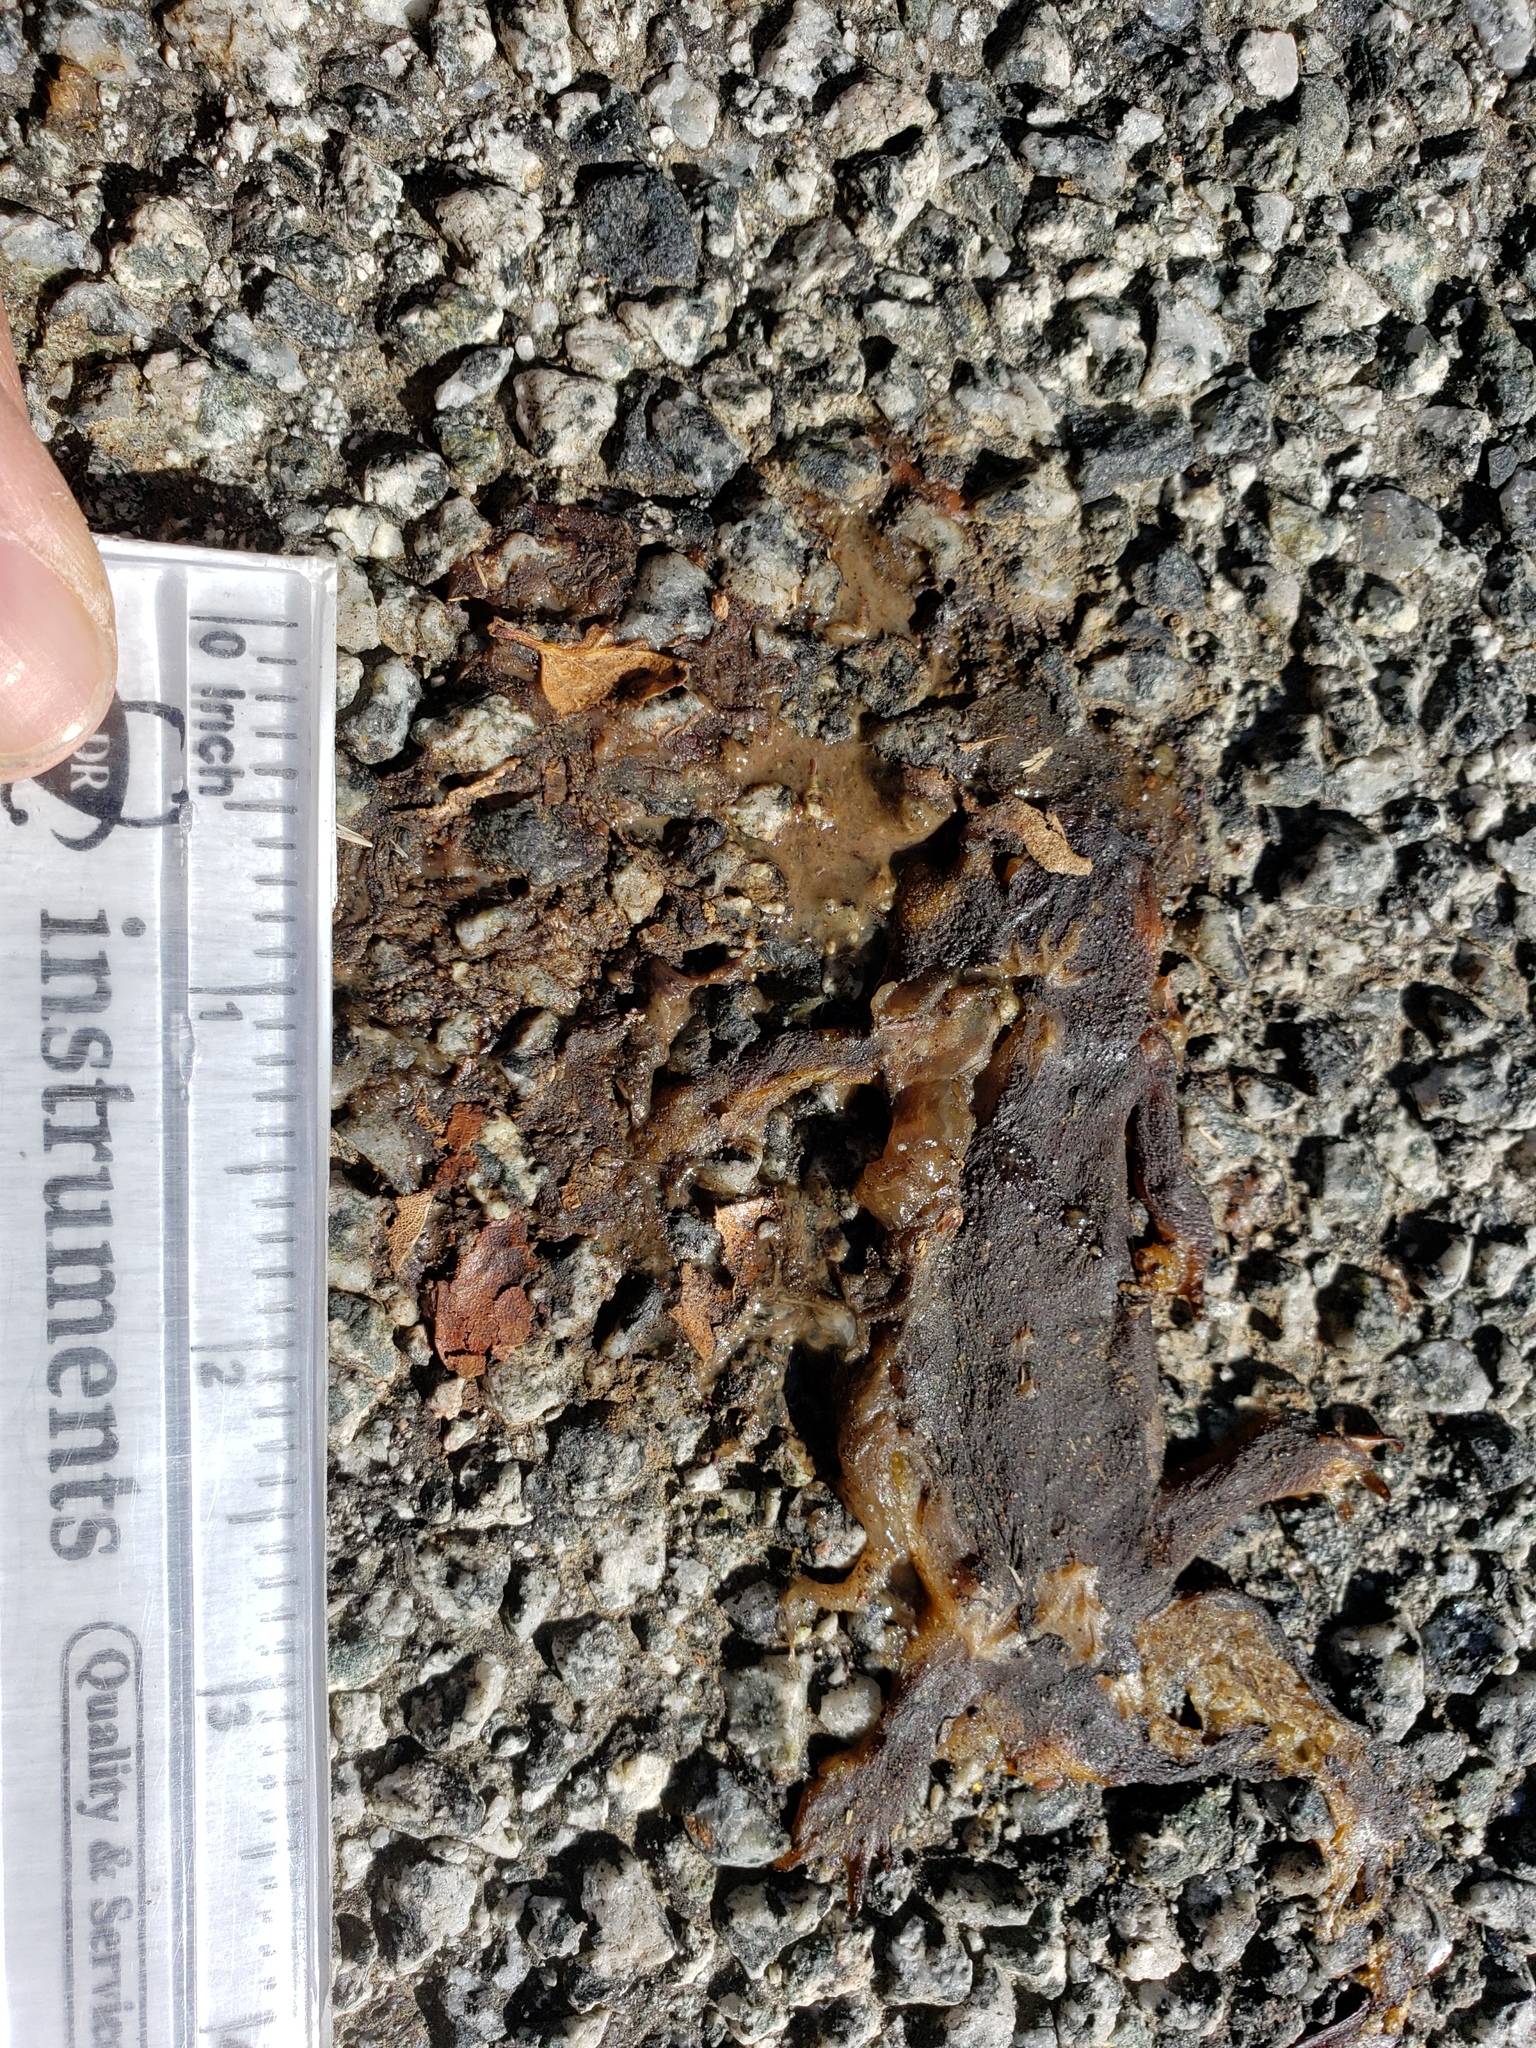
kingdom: Animalia
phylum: Chordata
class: Amphibia
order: Caudata
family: Salamandridae
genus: Taricha
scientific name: Taricha
